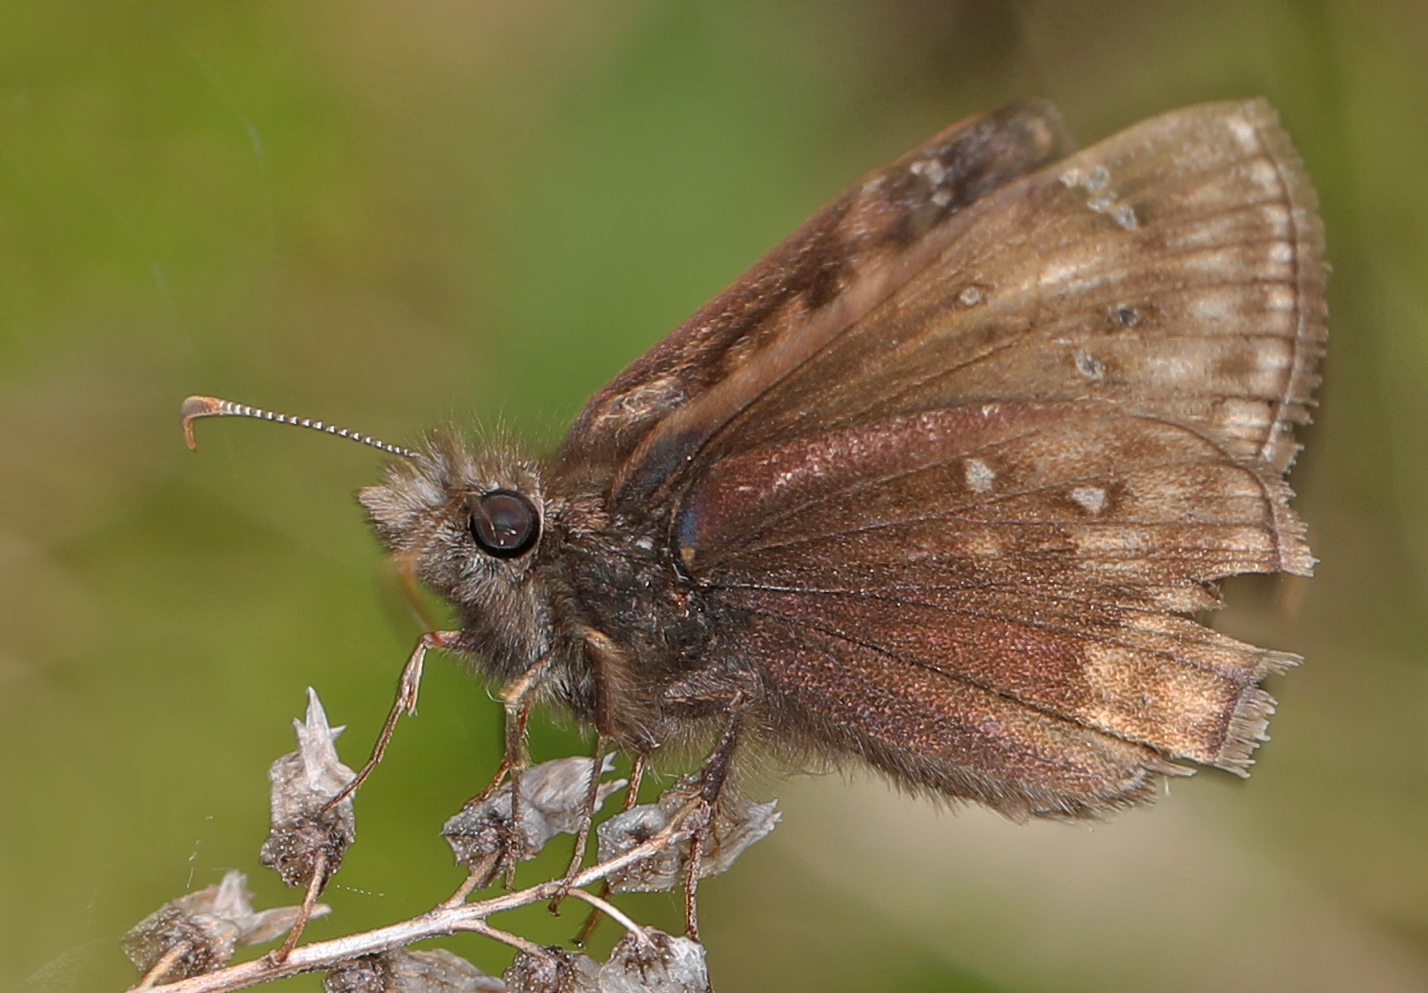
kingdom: Animalia
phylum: Arthropoda
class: Insecta
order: Lepidoptera
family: Hesperiidae
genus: Erynnis
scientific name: Erynnis juvenalis
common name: Juvenal's duskywing
